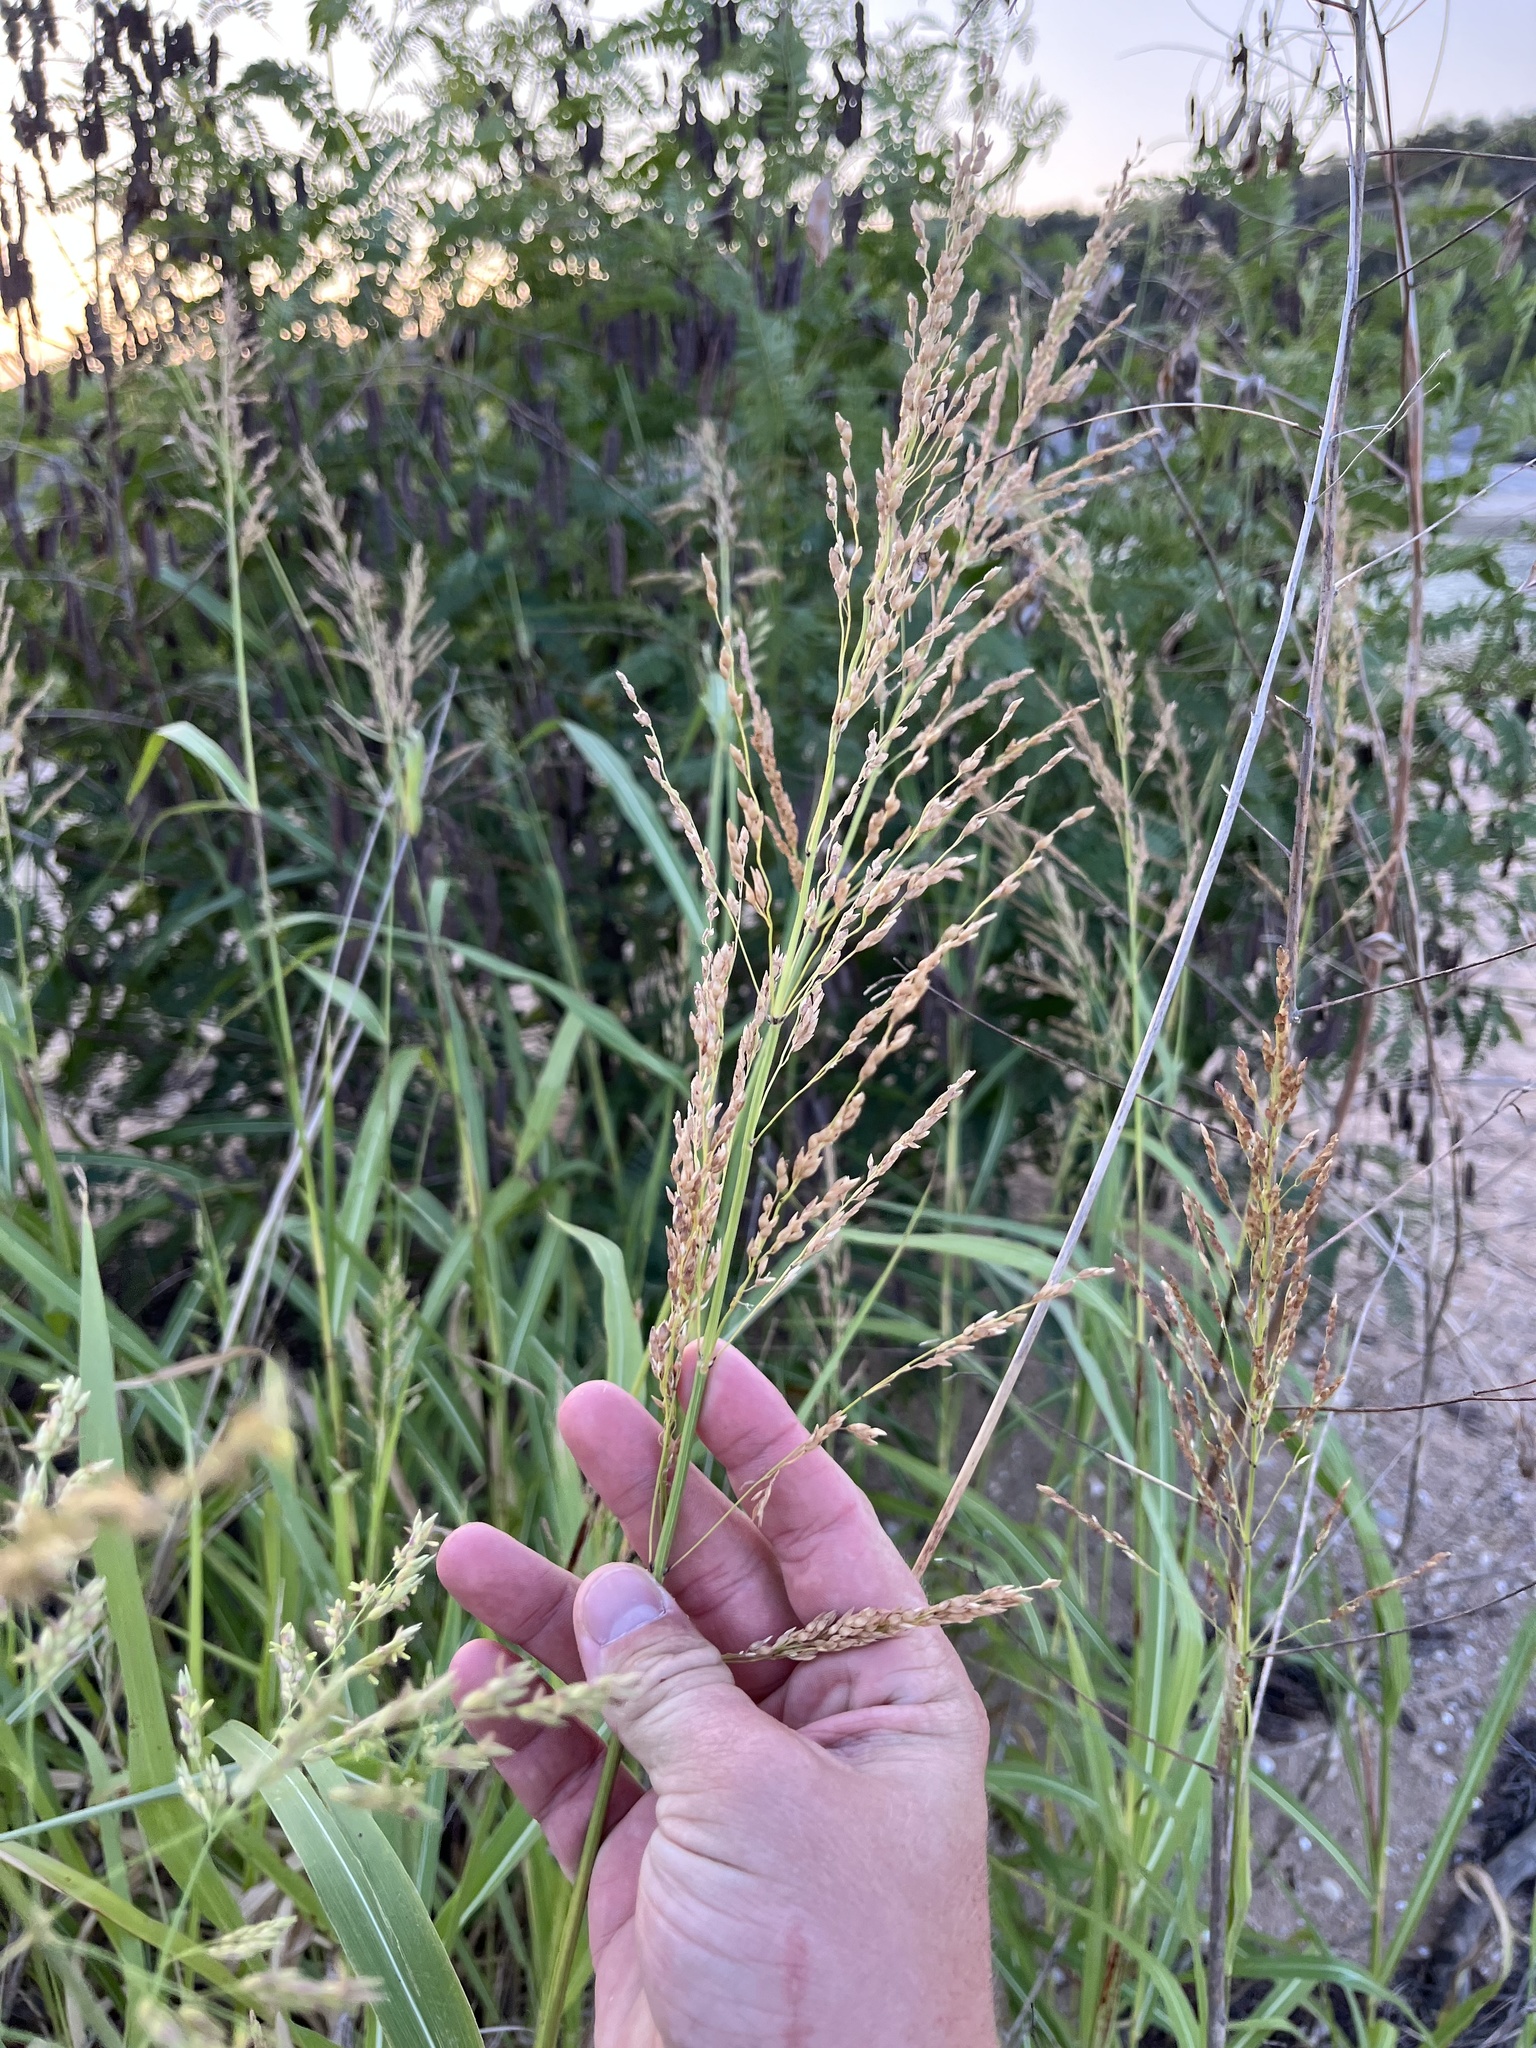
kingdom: Plantae
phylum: Tracheophyta
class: Liliopsida
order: Poales
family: Poaceae
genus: Sorghum
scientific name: Sorghum halepense
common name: Johnson-grass
